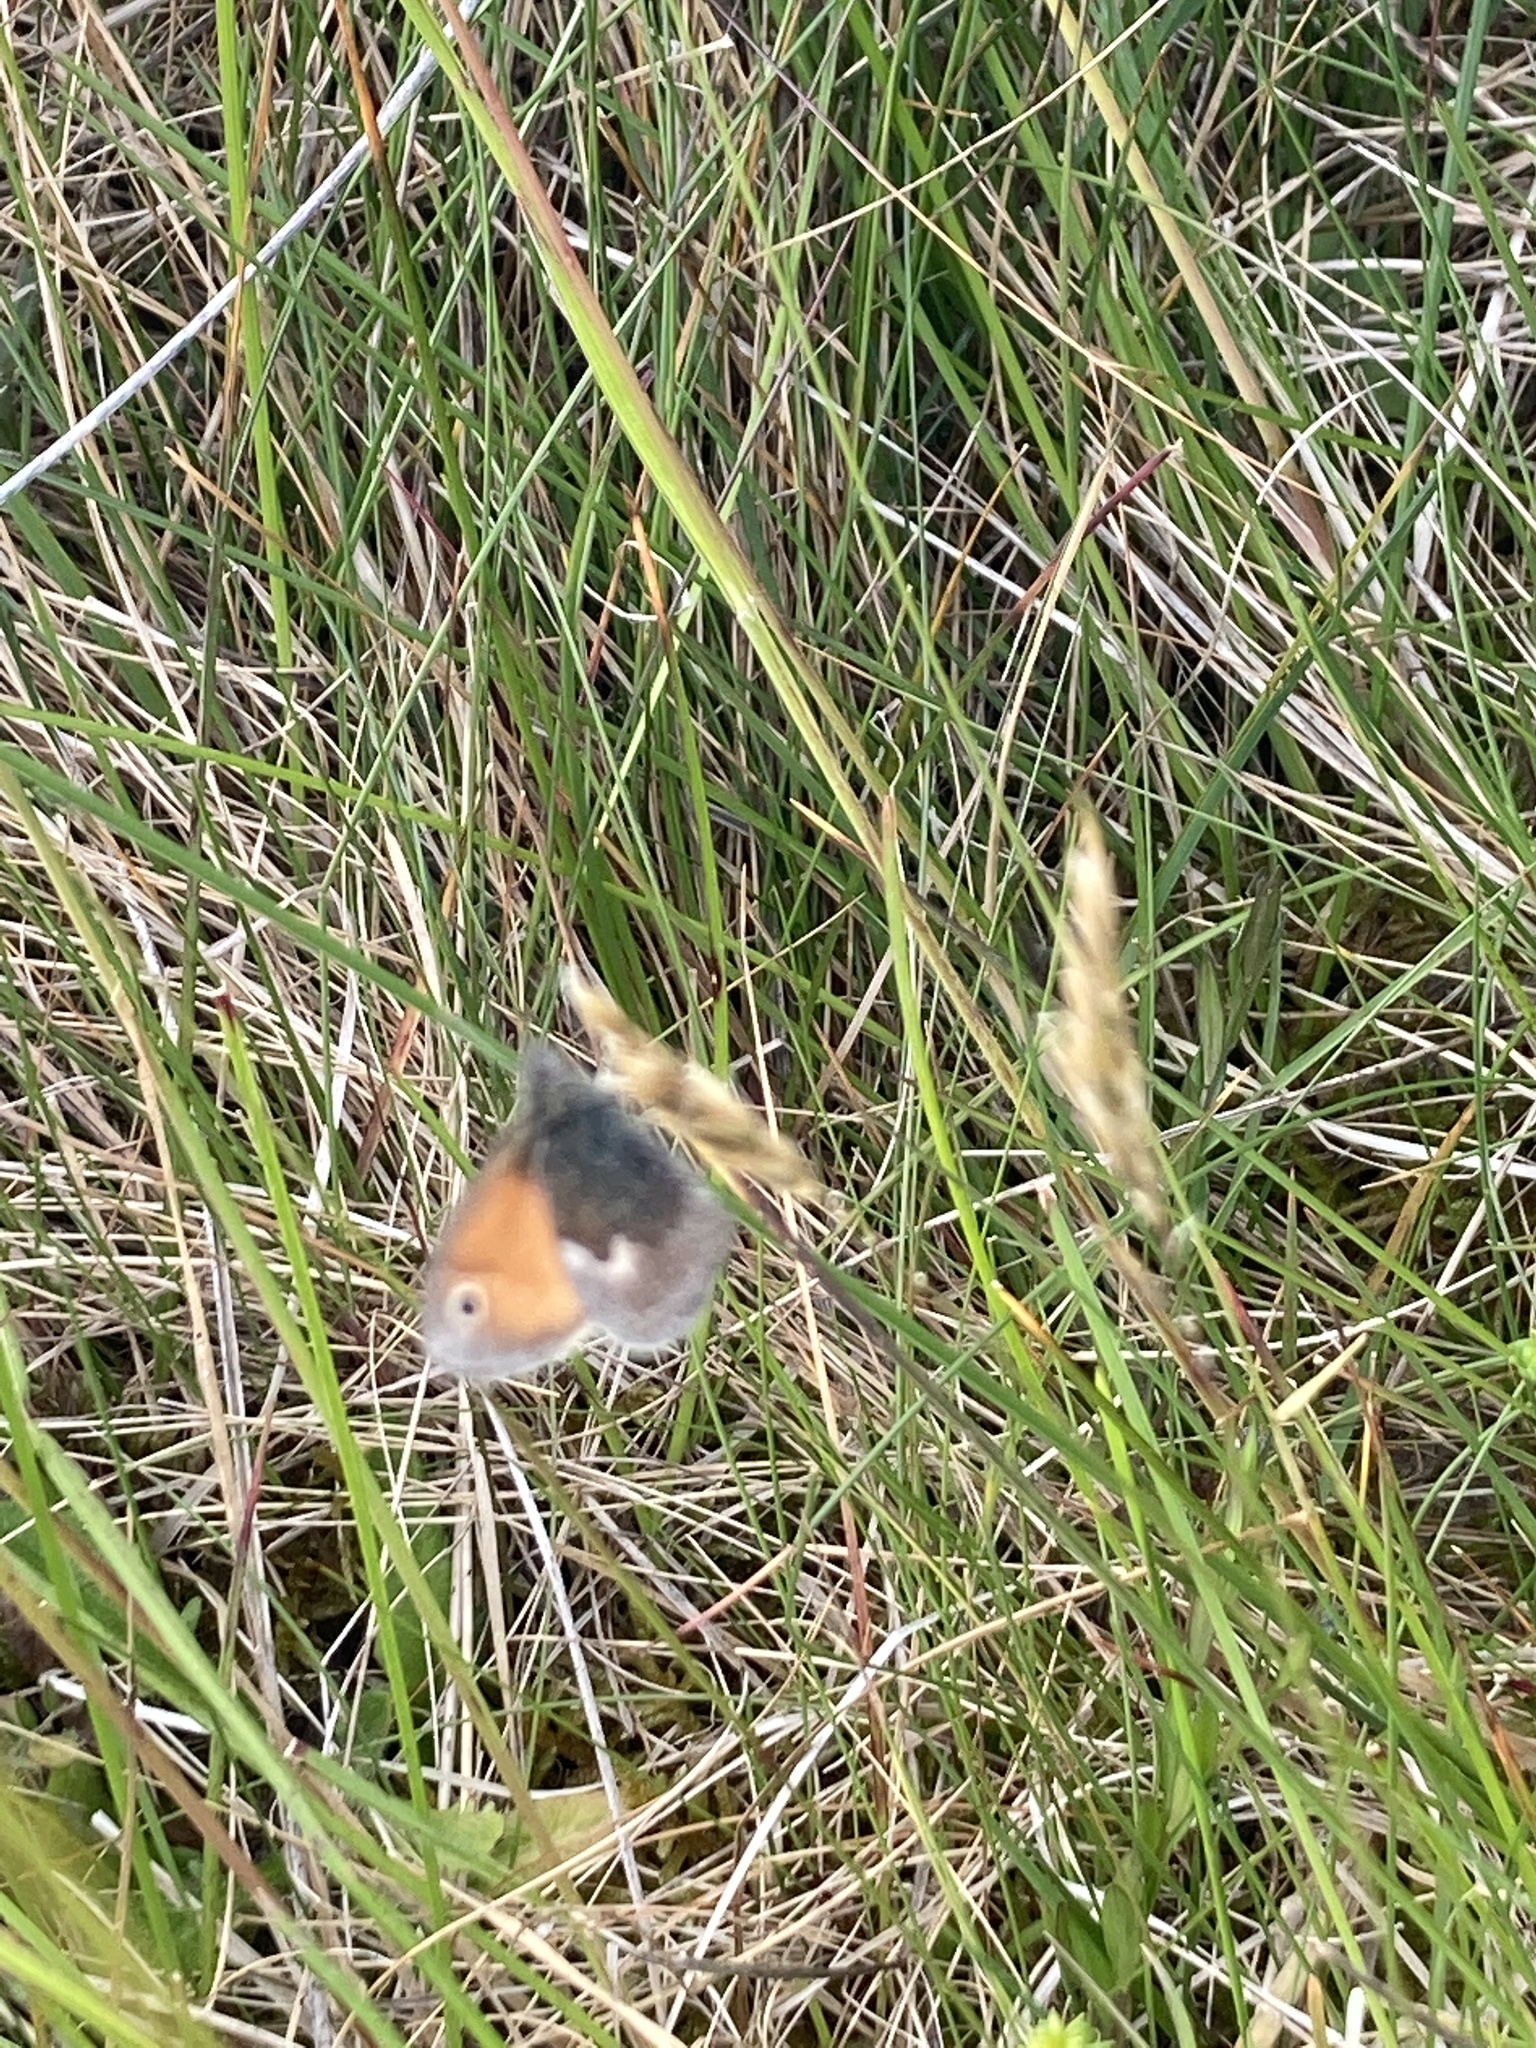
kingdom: Animalia
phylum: Arthropoda
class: Insecta
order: Lepidoptera
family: Nymphalidae
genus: Coenonympha
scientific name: Coenonympha pamphilus
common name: Small heath
